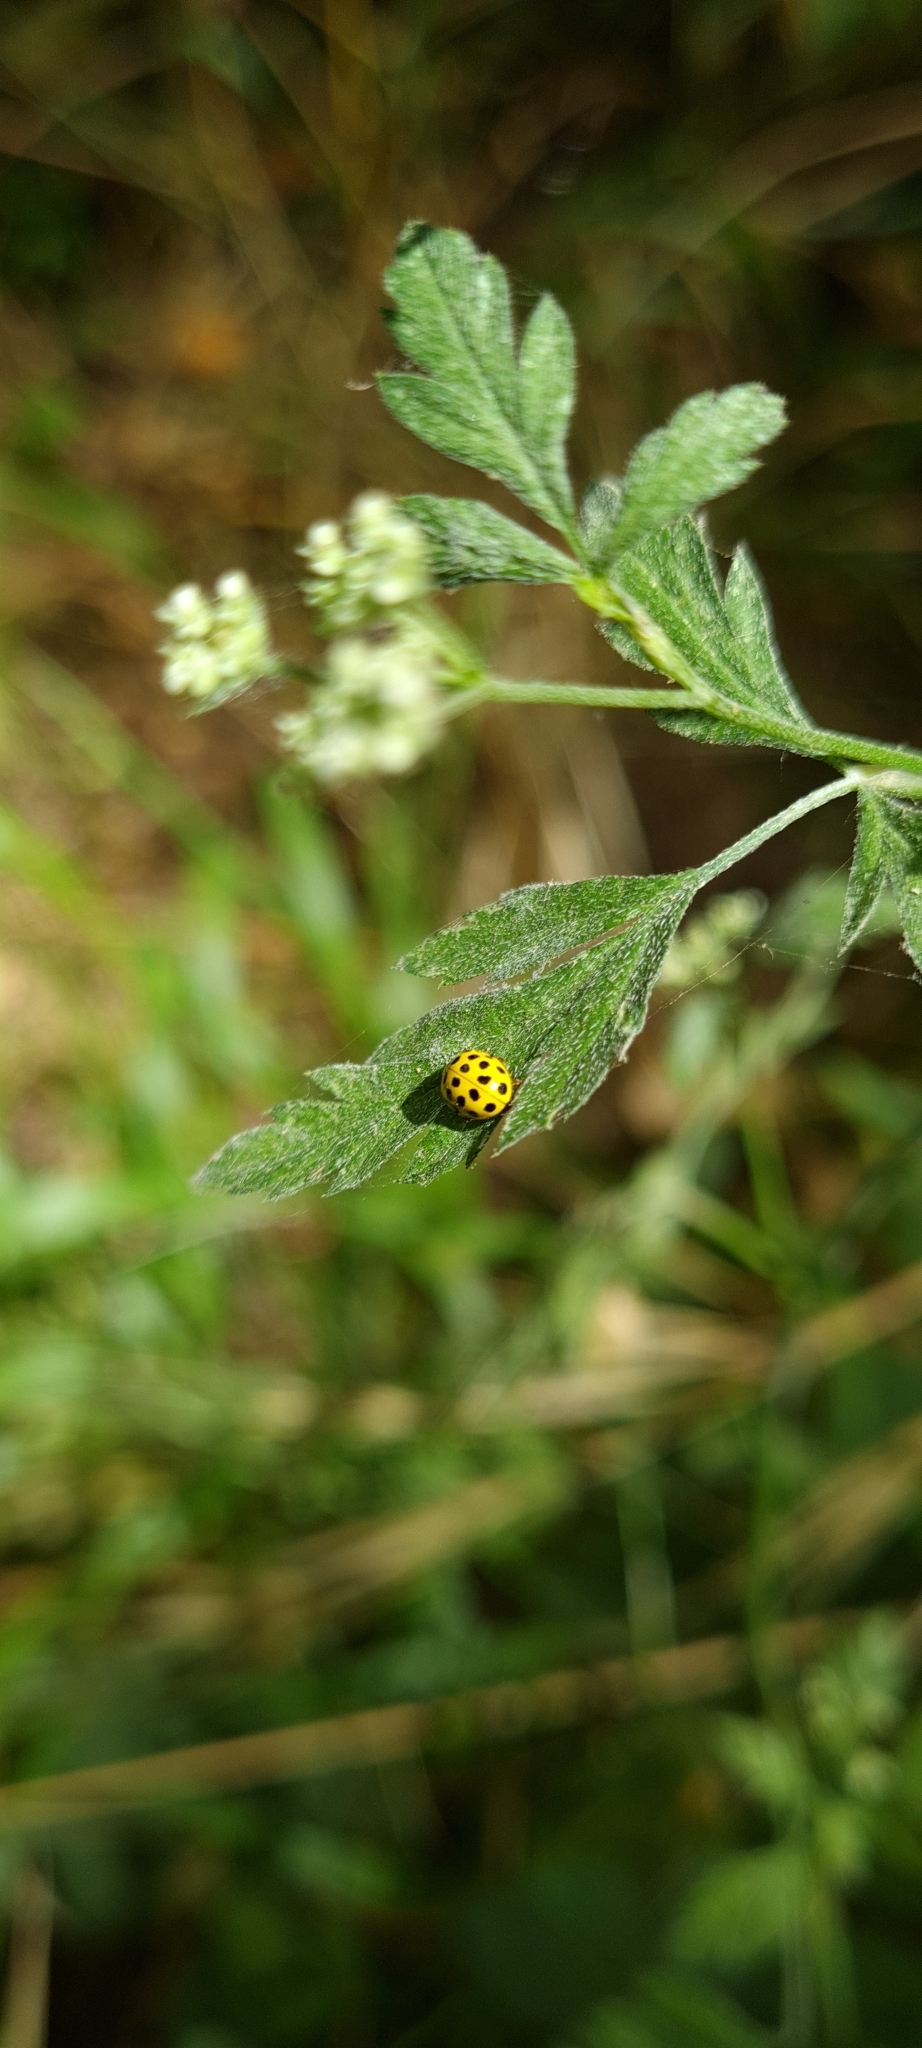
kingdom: Animalia
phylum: Arthropoda
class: Insecta
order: Coleoptera
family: Coccinellidae
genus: Psyllobora
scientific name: Psyllobora vigintiduopunctata
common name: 22-spot ladybird
